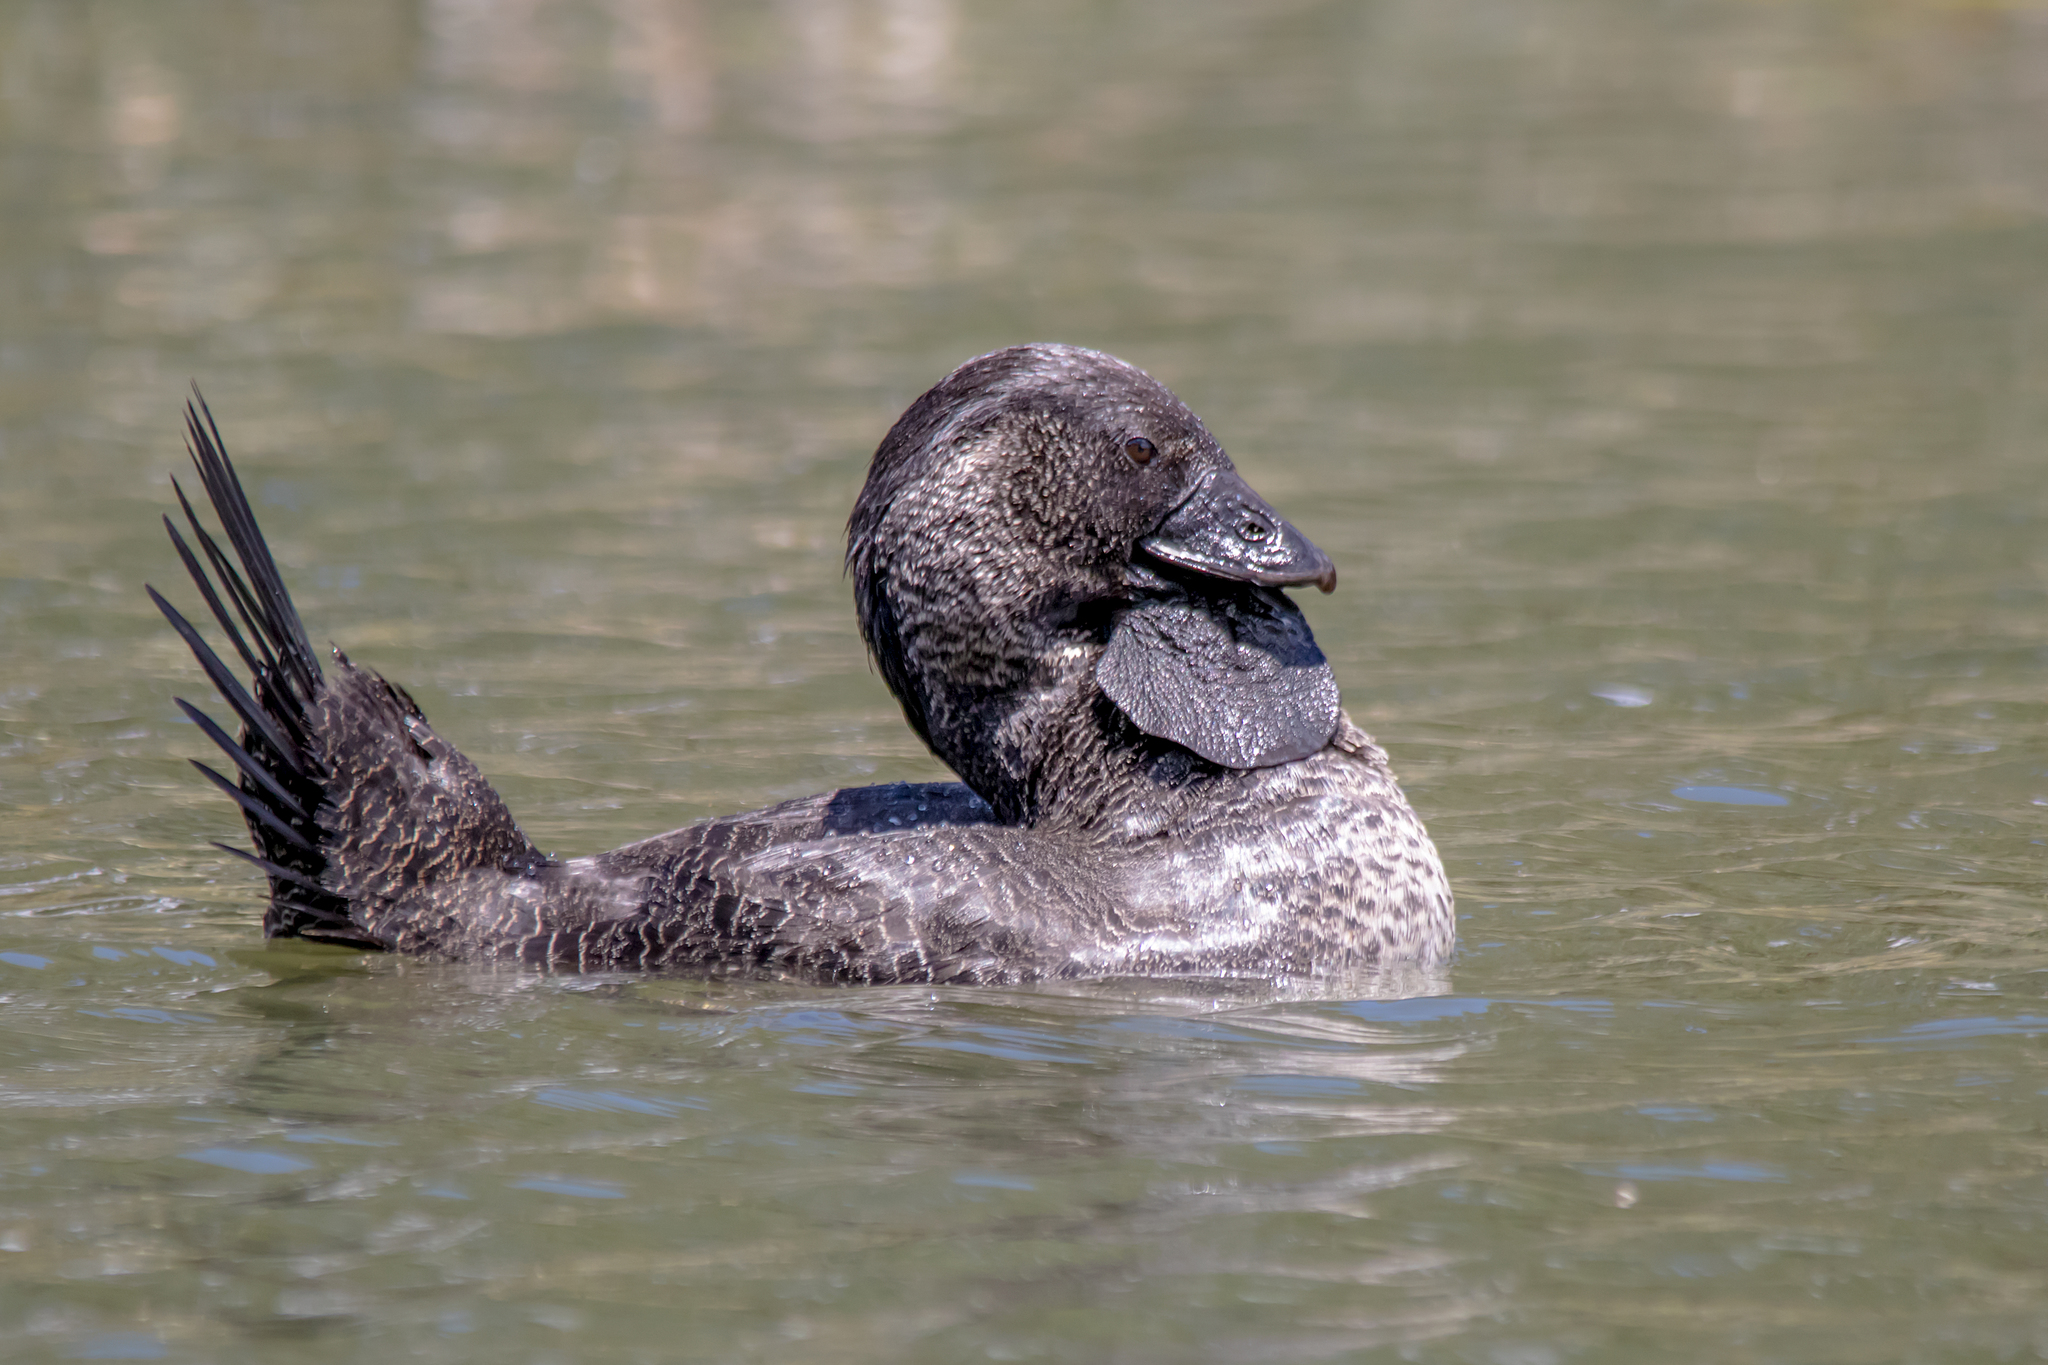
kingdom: Animalia
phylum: Chordata
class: Aves
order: Anseriformes
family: Anatidae
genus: Biziura
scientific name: Biziura lobata
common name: Musk duck
